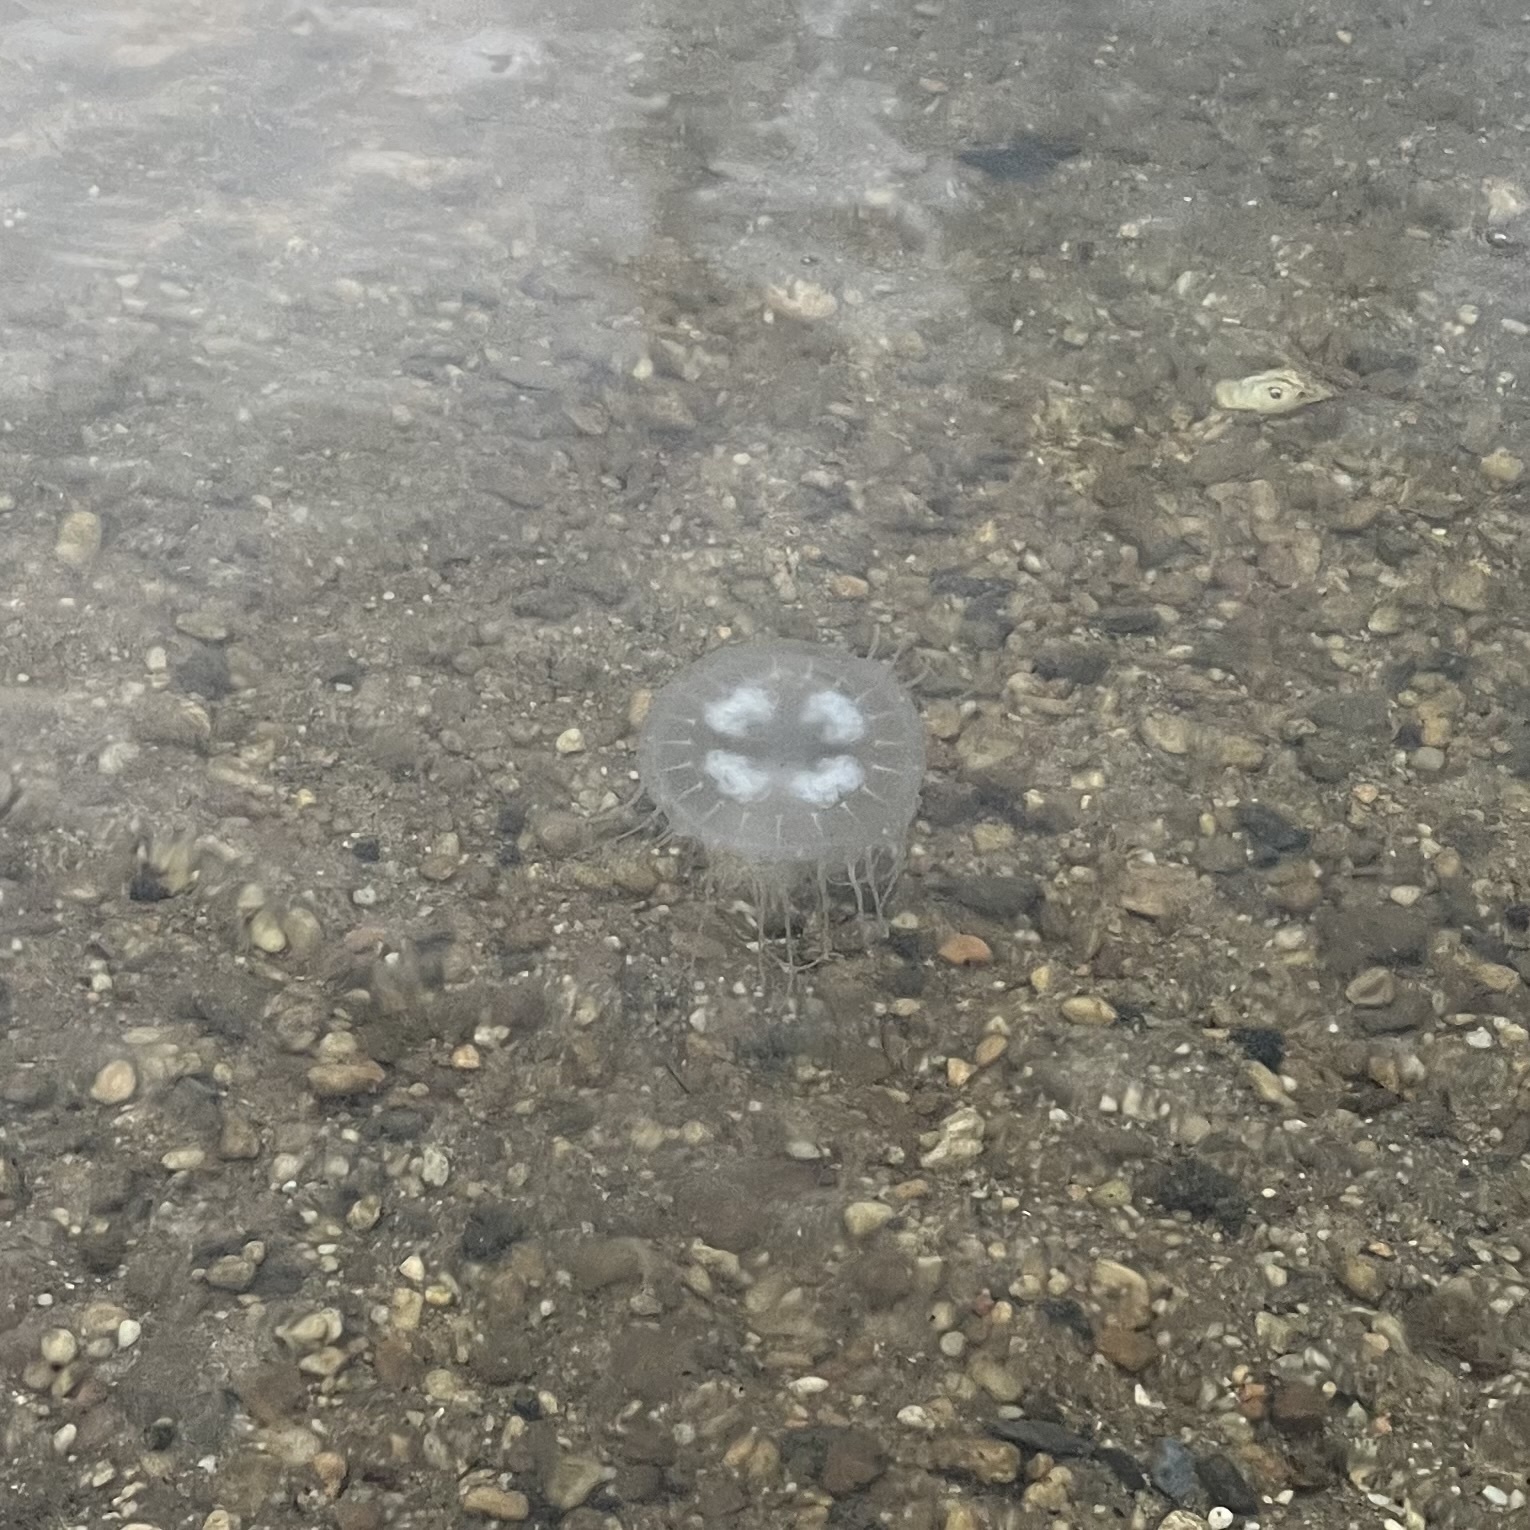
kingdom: Animalia
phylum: Cnidaria
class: Scyphozoa
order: Semaeostomeae
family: Pelagiidae
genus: Chrysaora
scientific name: Chrysaora chesapeakei
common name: Bay nettle
